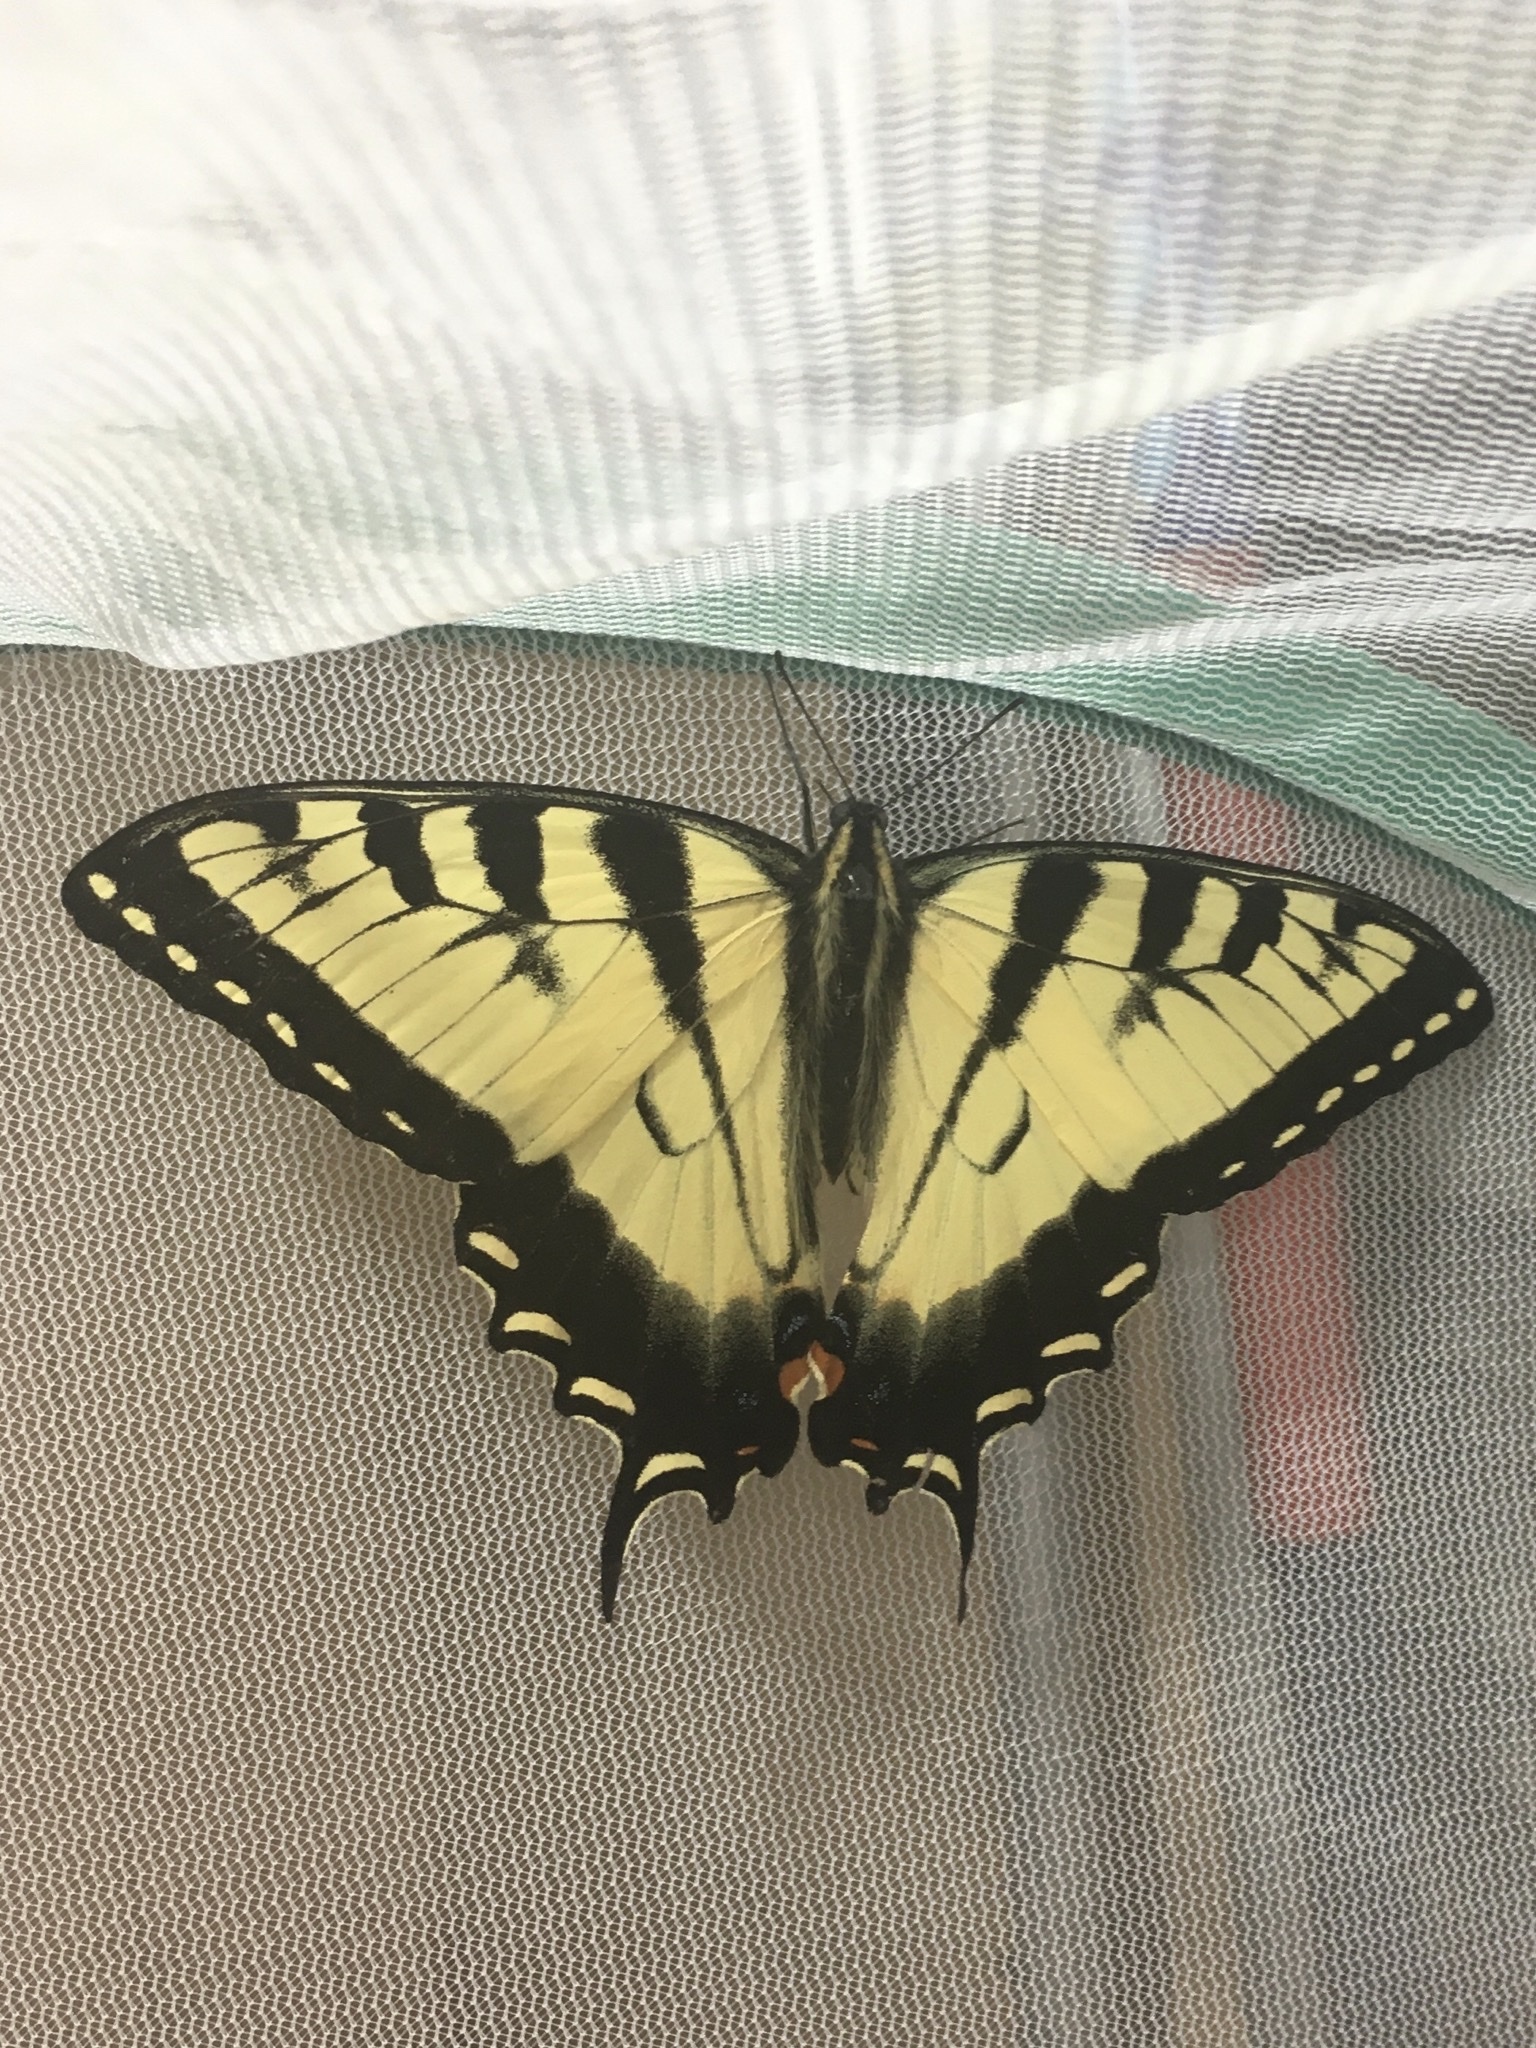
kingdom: Animalia
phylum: Arthropoda
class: Insecta
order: Lepidoptera
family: Papilionidae
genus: Papilio
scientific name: Papilio
